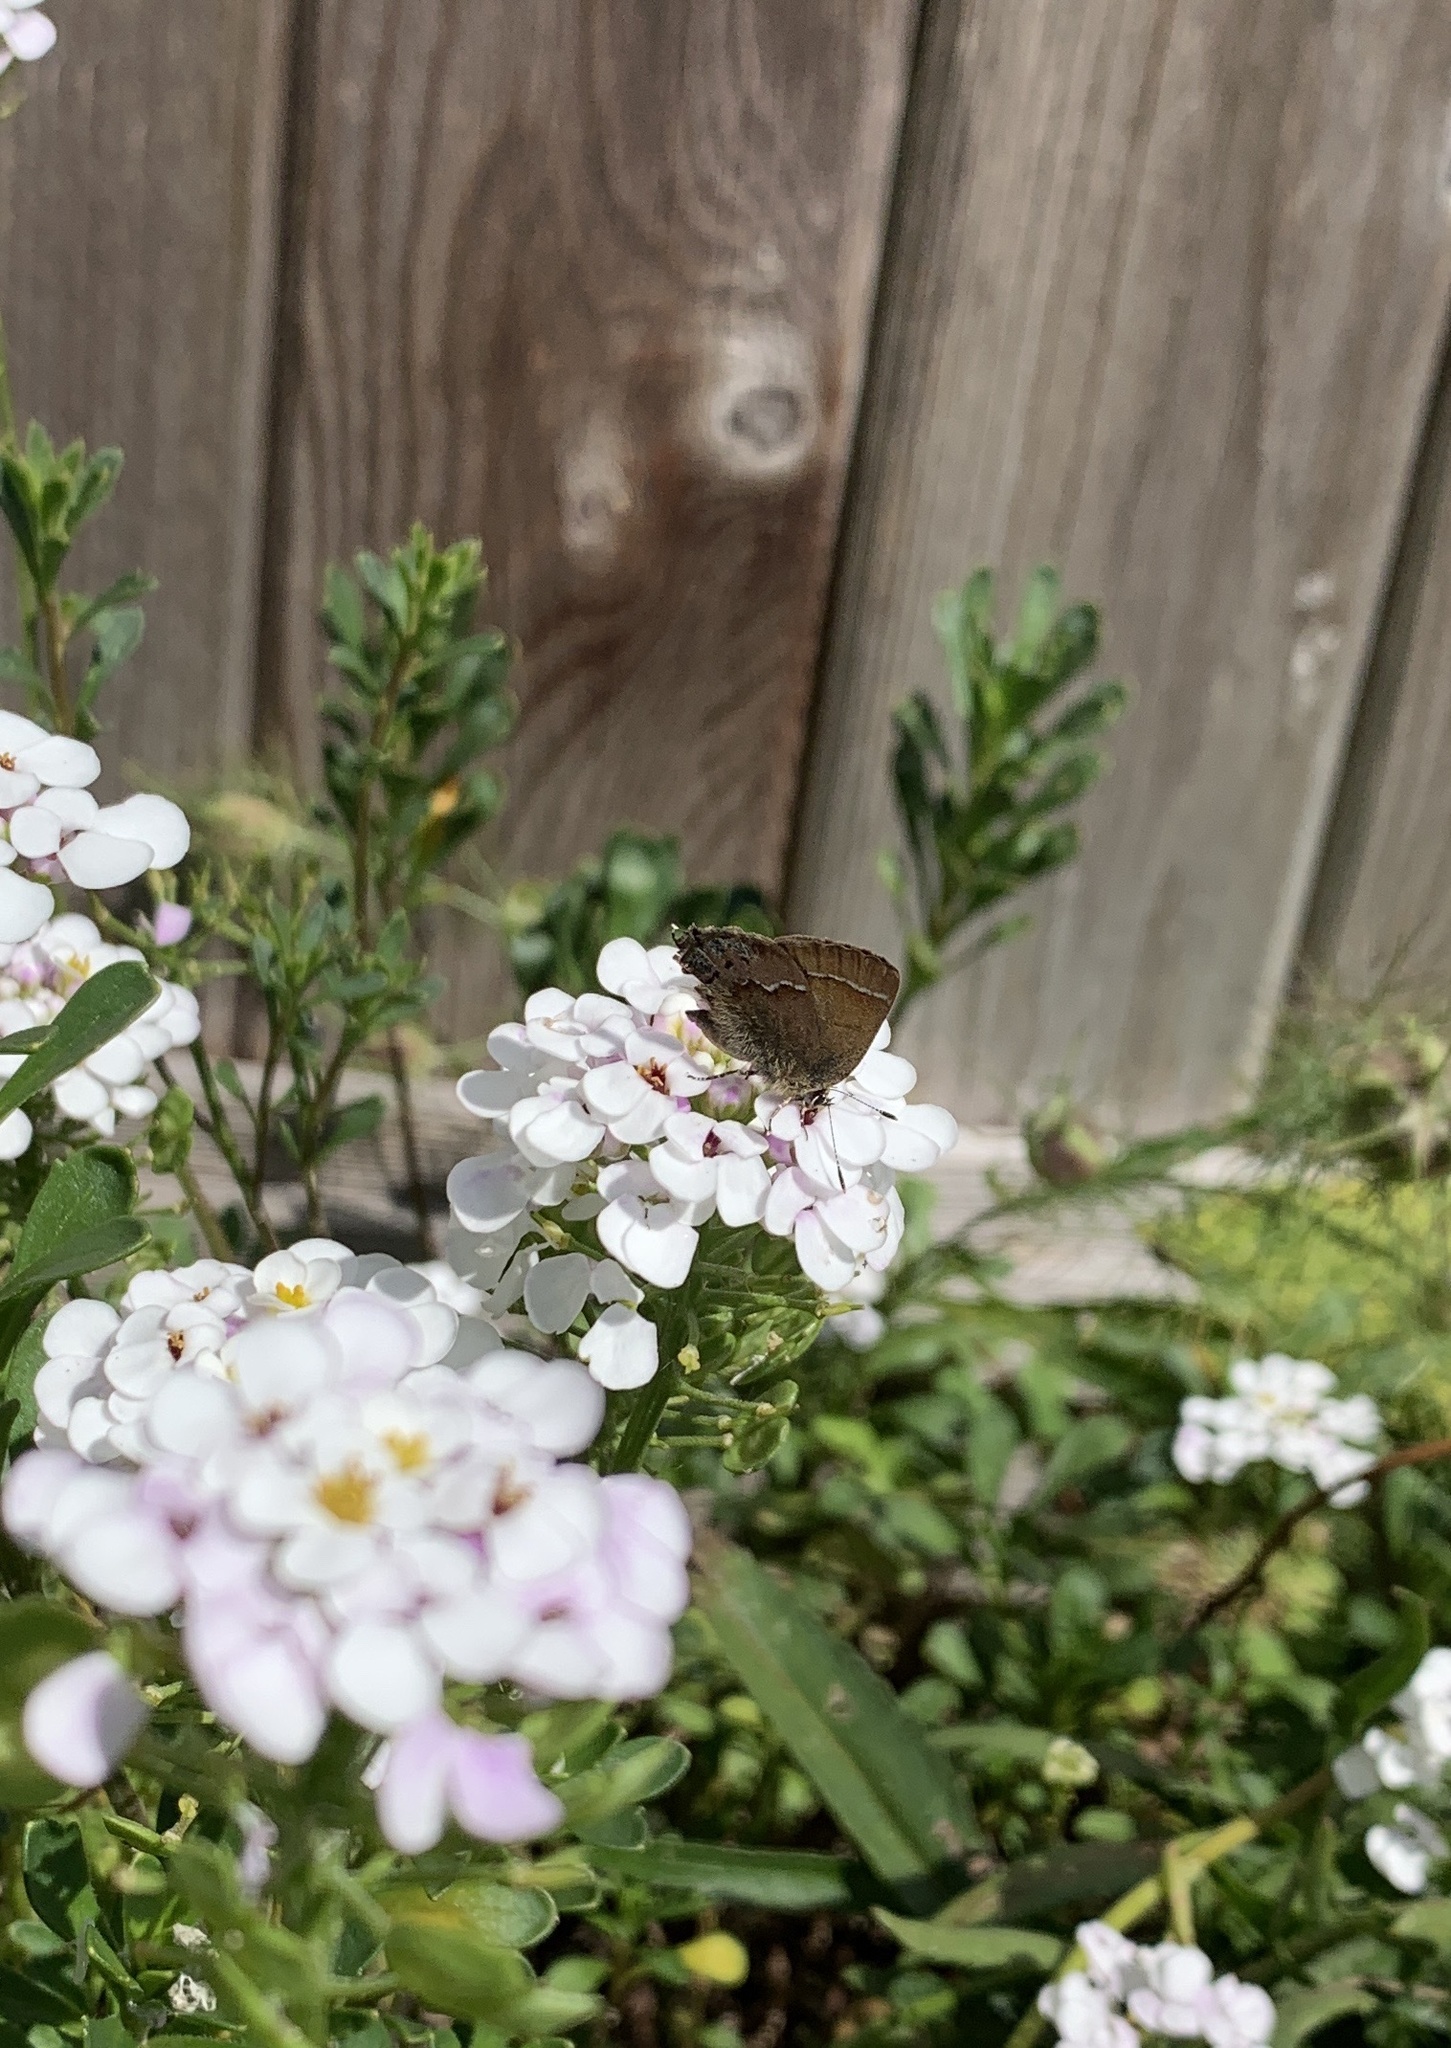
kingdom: Animalia
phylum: Arthropoda
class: Insecta
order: Lepidoptera
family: Lycaenidae
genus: Mitoura
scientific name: Mitoura gryneus
